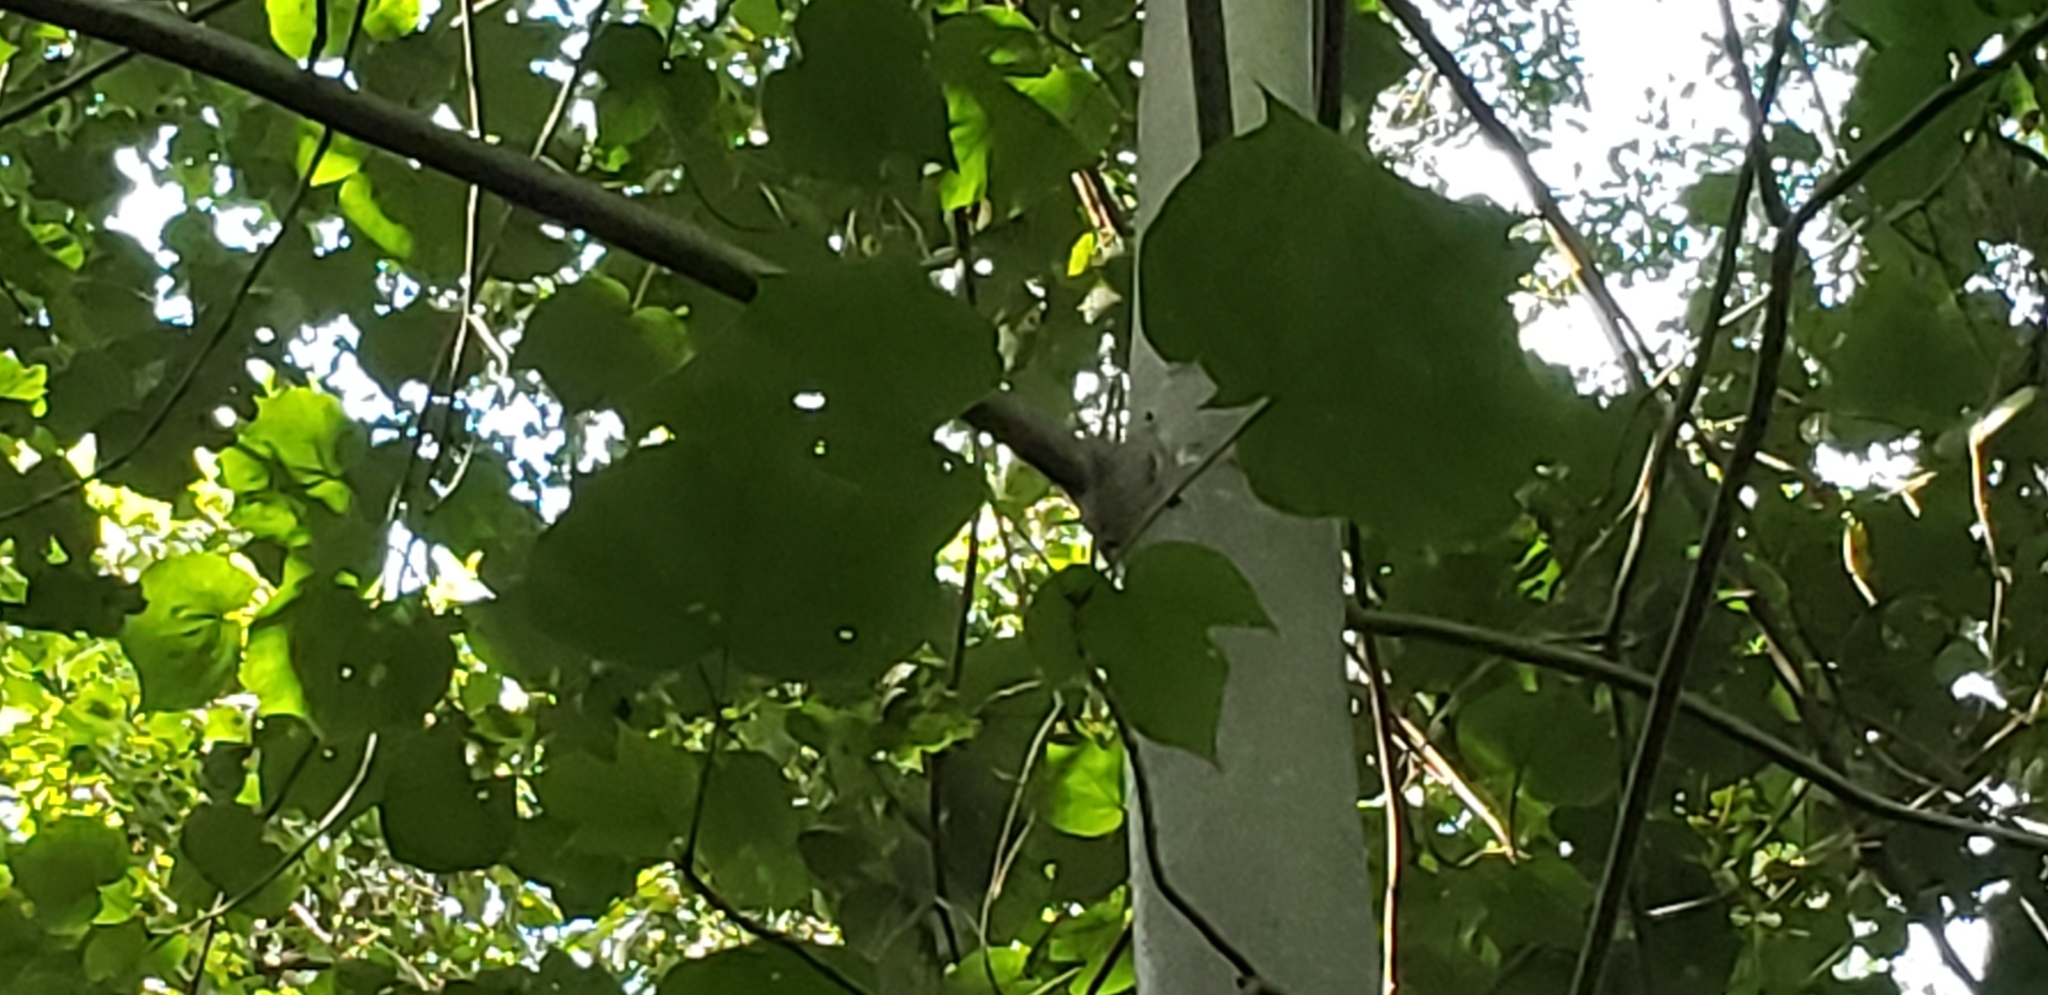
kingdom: Plantae
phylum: Tracheophyta
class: Magnoliopsida
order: Malvales
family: Malvaceae
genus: Firmiana
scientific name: Firmiana simplex
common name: Chinese parasoltree
